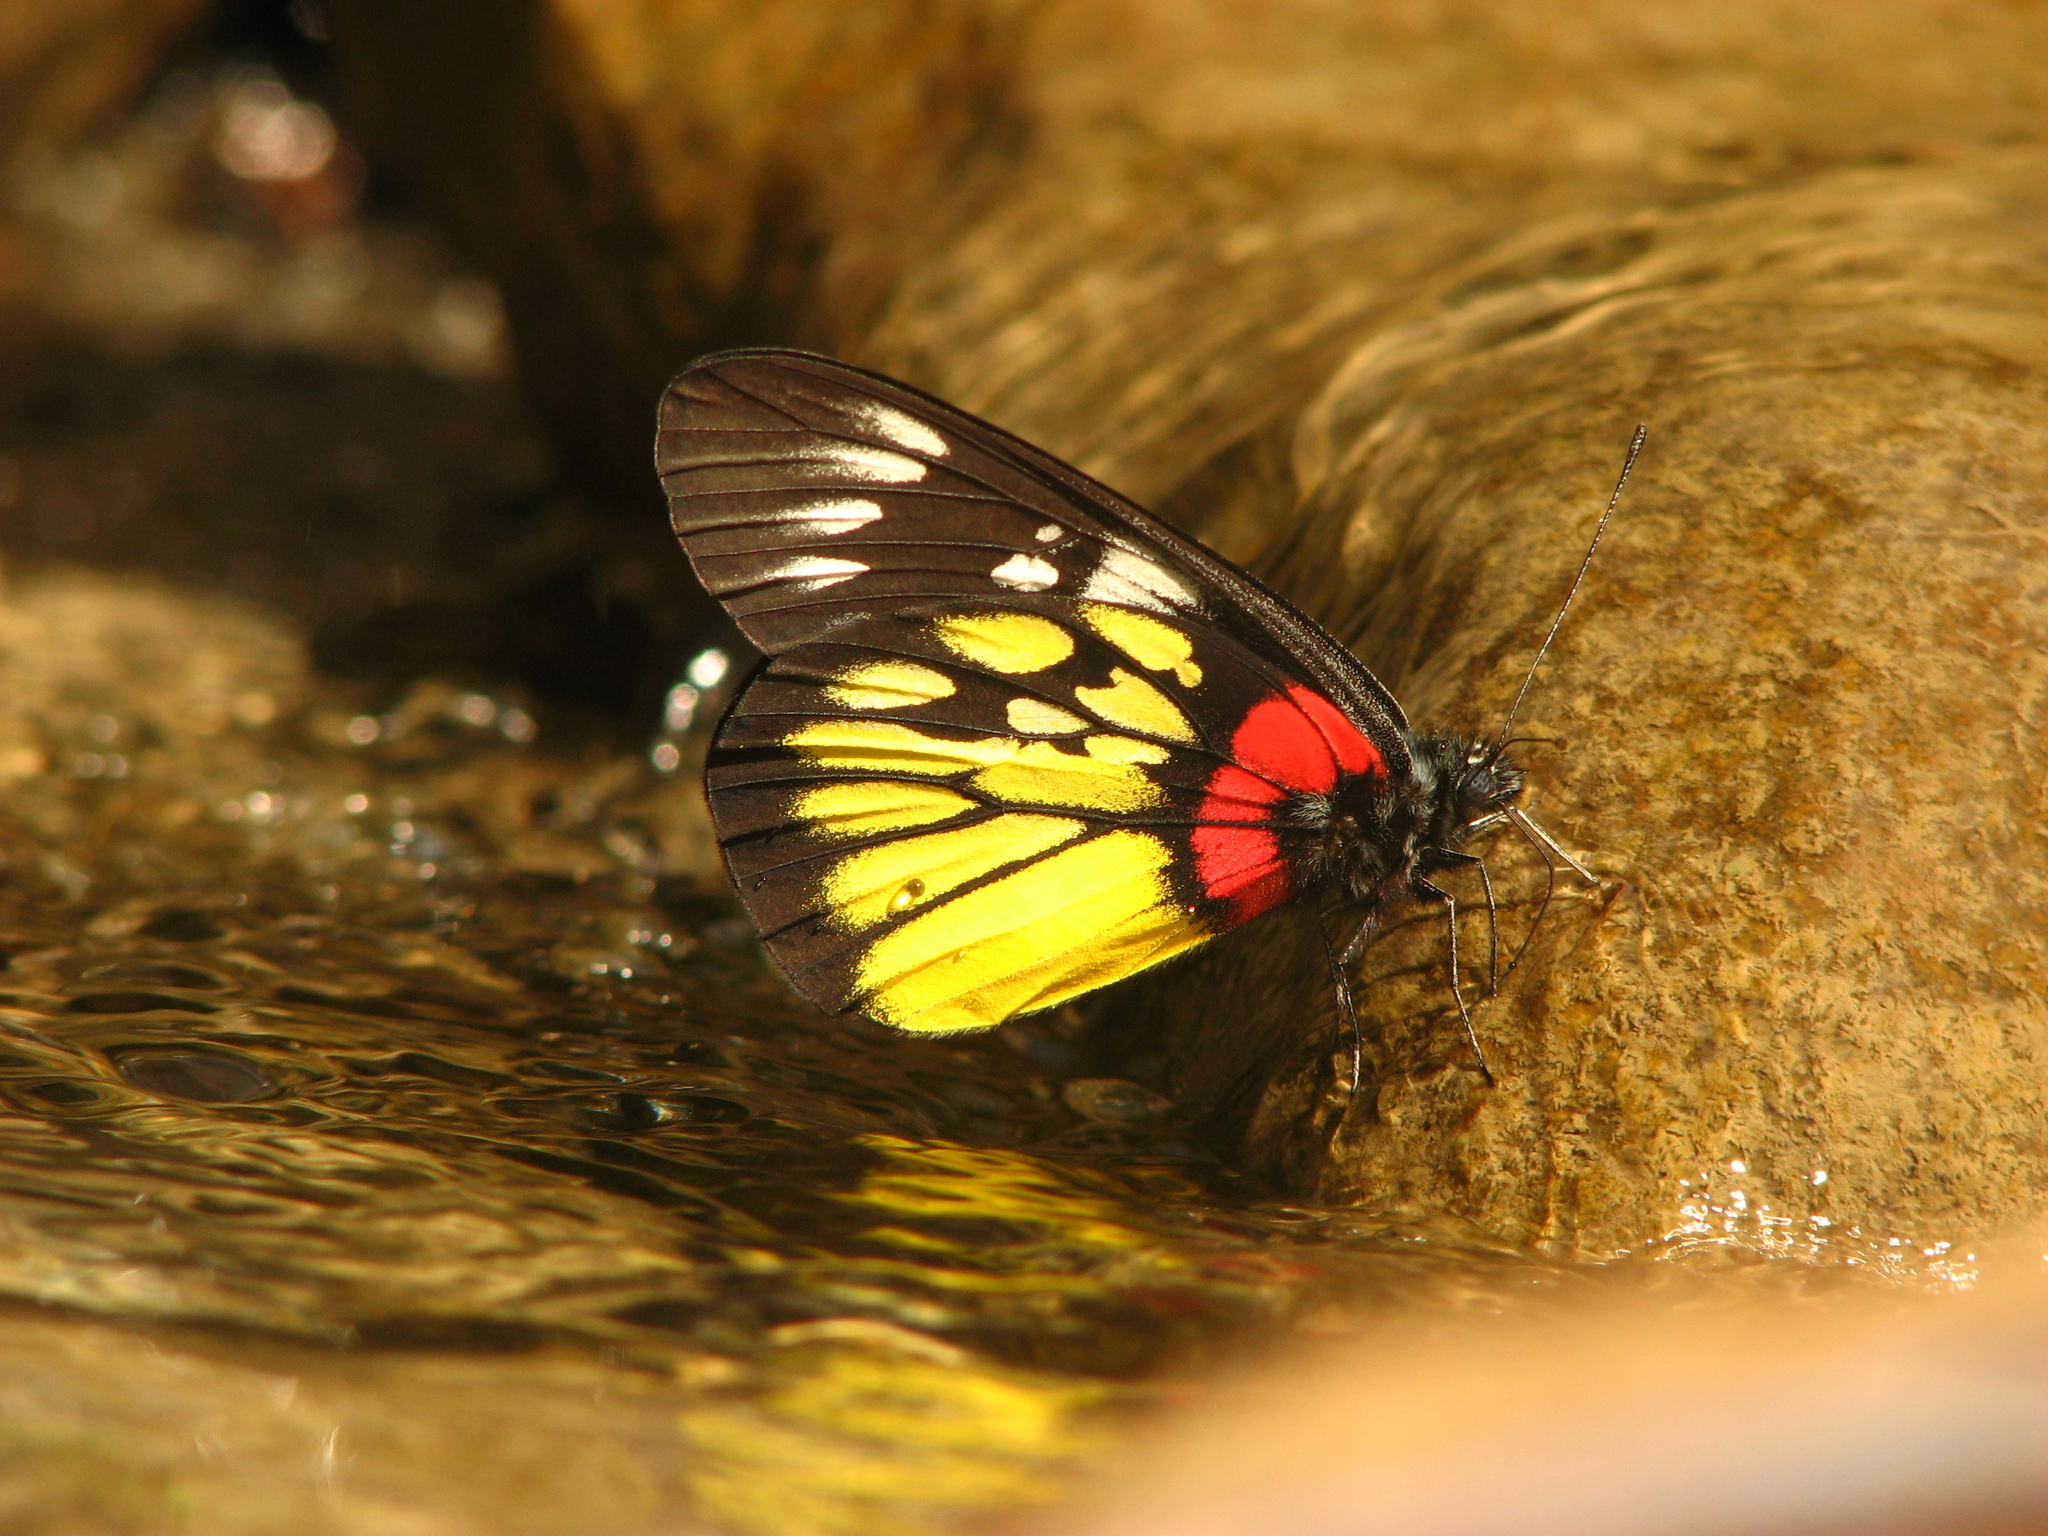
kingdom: Animalia
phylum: Arthropoda
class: Insecta
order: Lepidoptera
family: Pieridae
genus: Delias
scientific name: Delias pasithoe
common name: Red-base jezebel
